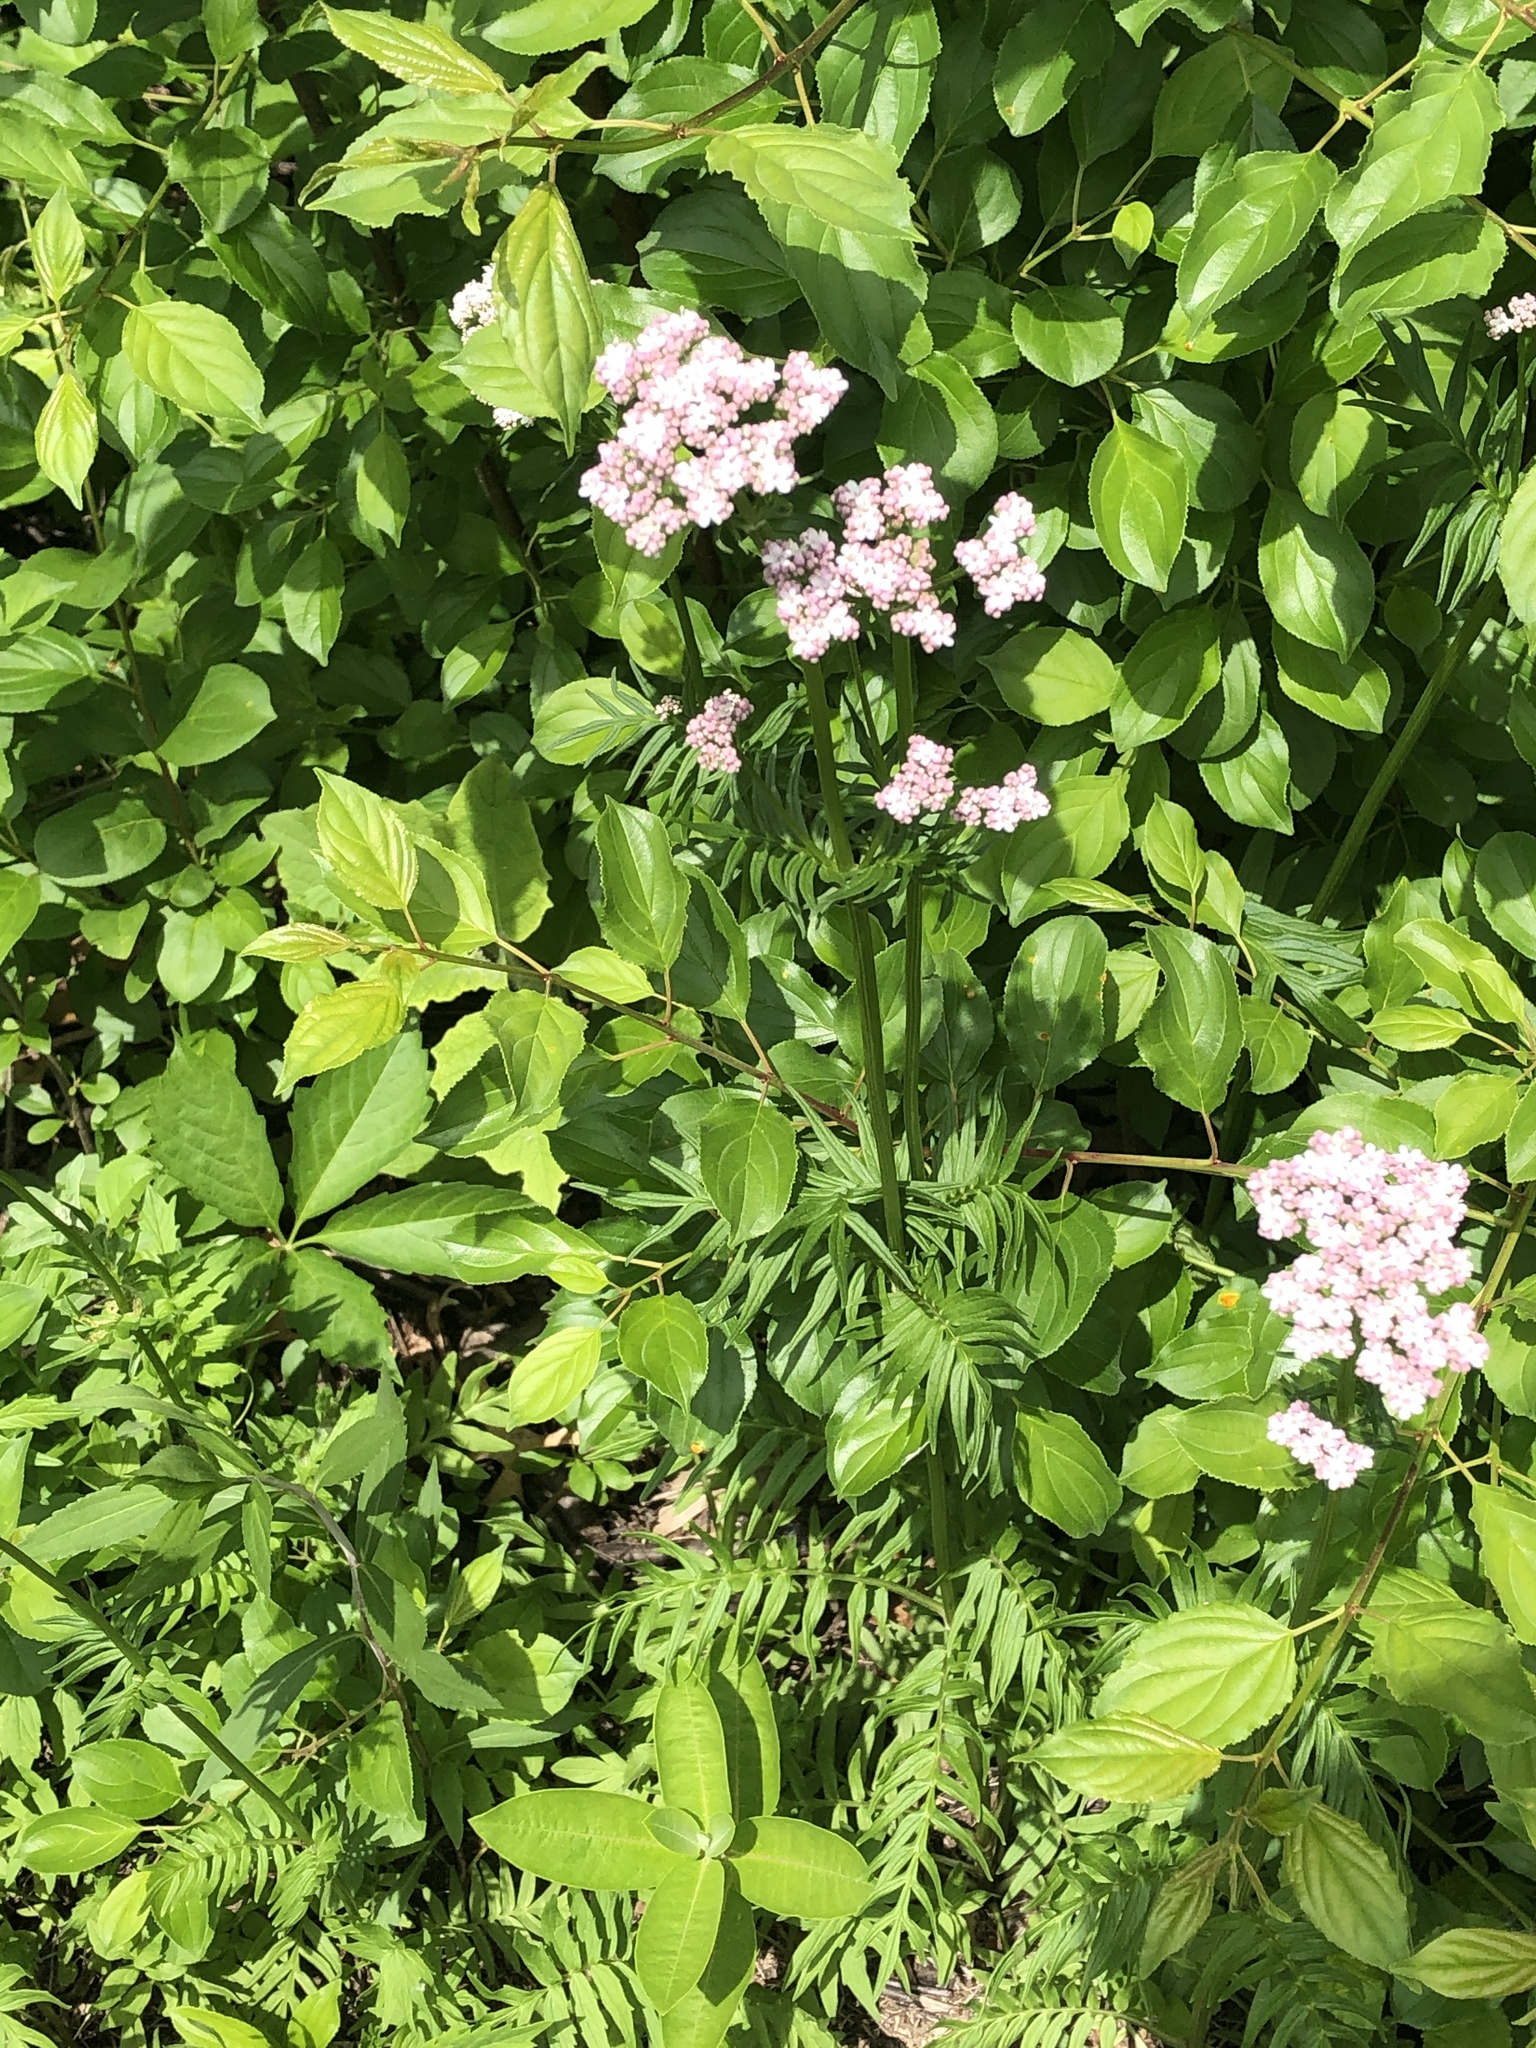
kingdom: Plantae
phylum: Tracheophyta
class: Magnoliopsida
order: Dipsacales
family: Caprifoliaceae
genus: Valeriana
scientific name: Valeriana officinalis
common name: Common valerian
